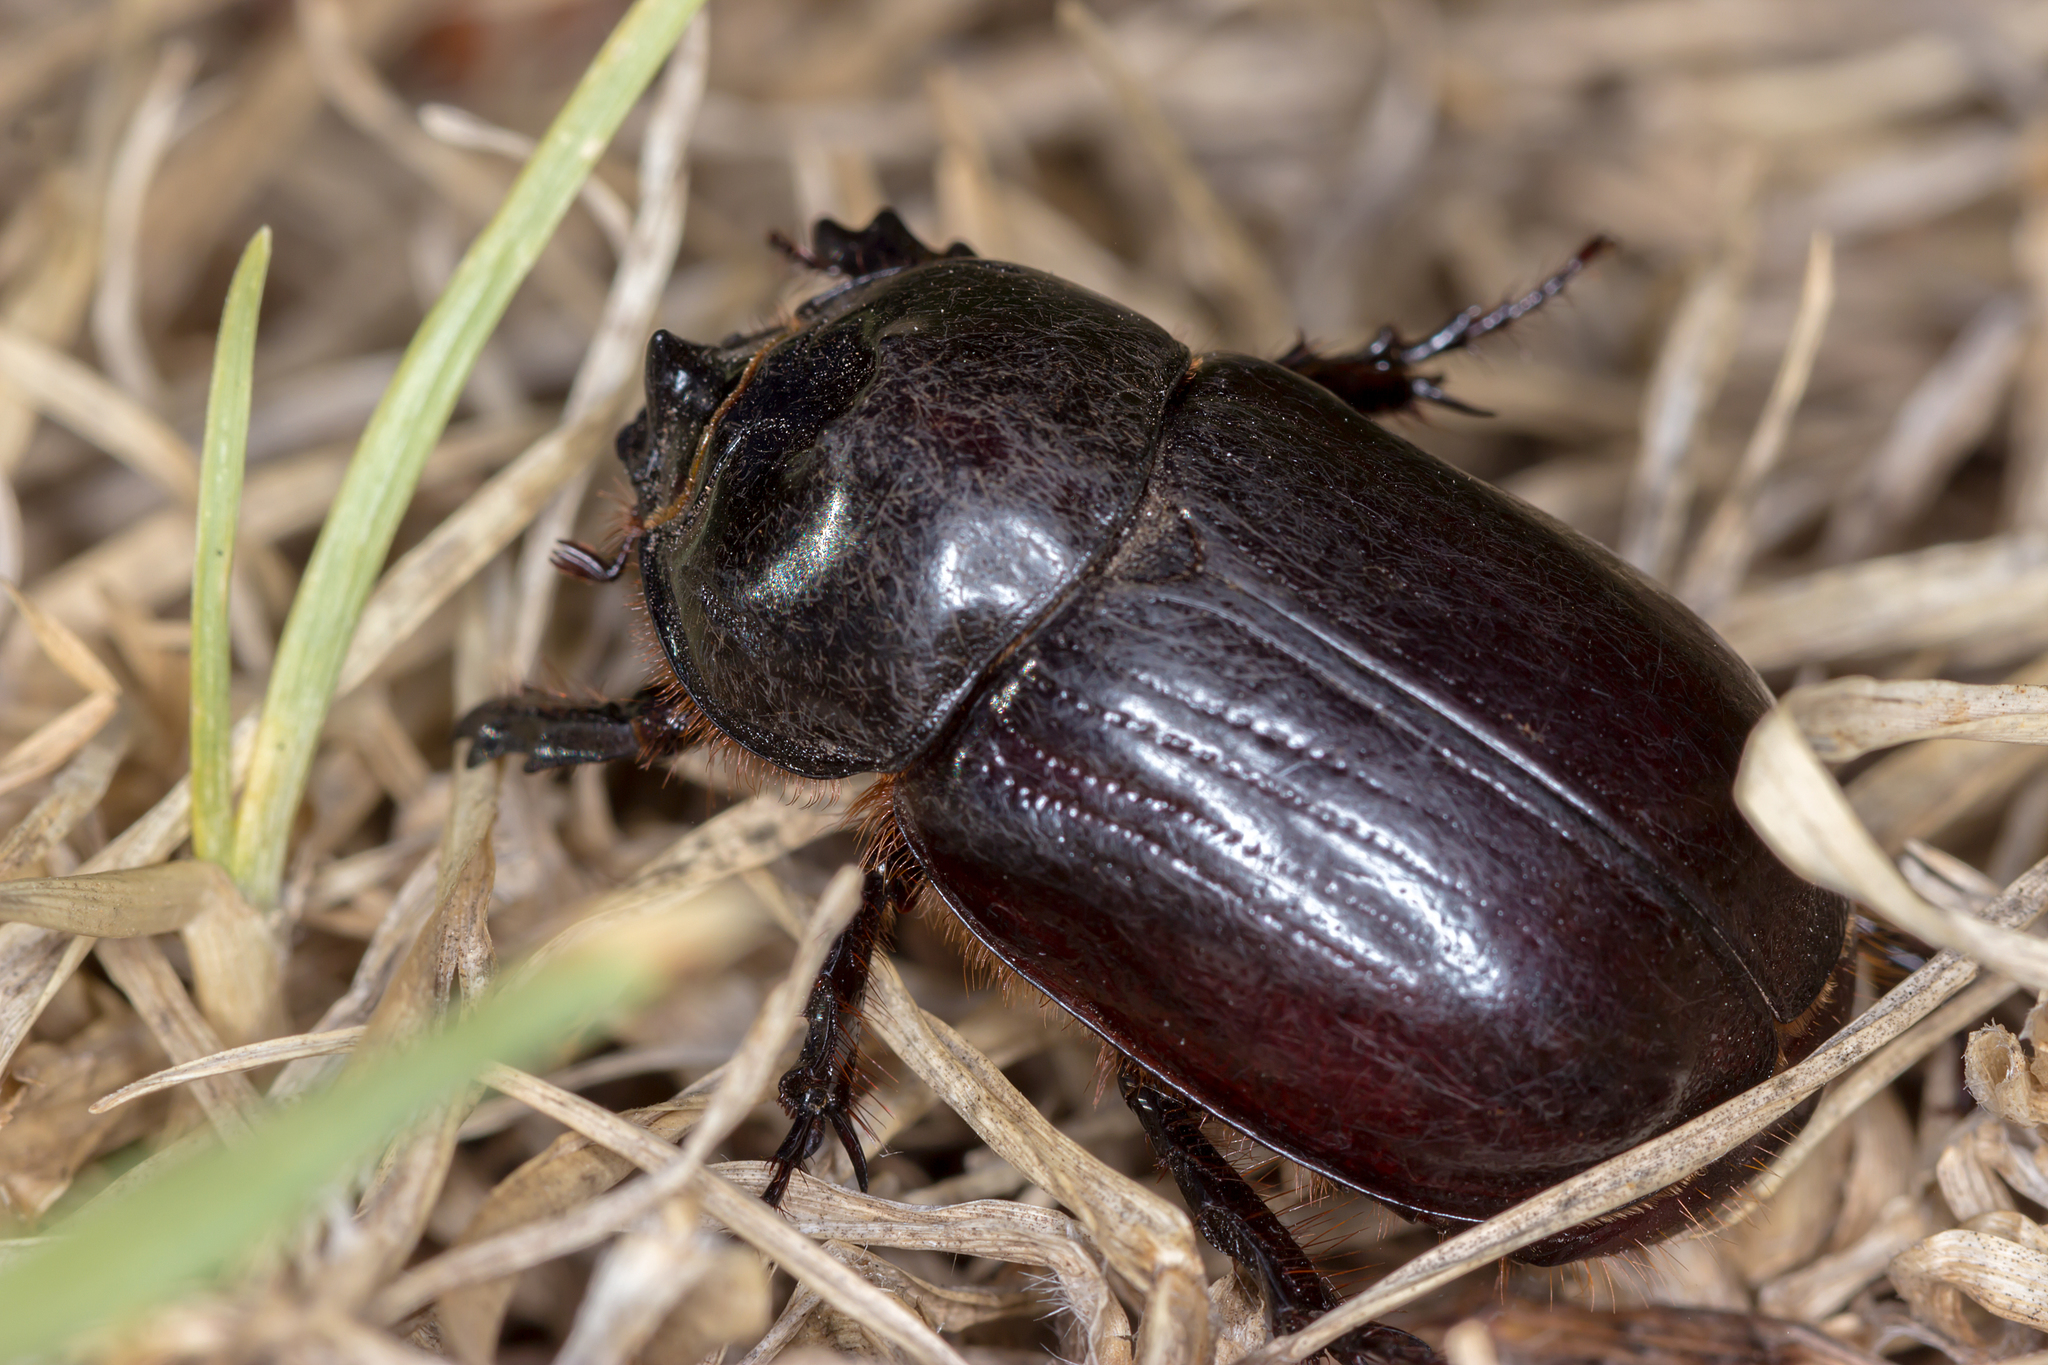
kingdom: Animalia
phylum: Arthropoda
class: Insecta
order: Coleoptera
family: Scarabaeidae
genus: Dasygnathus
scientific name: Dasygnathus trituberculatus
